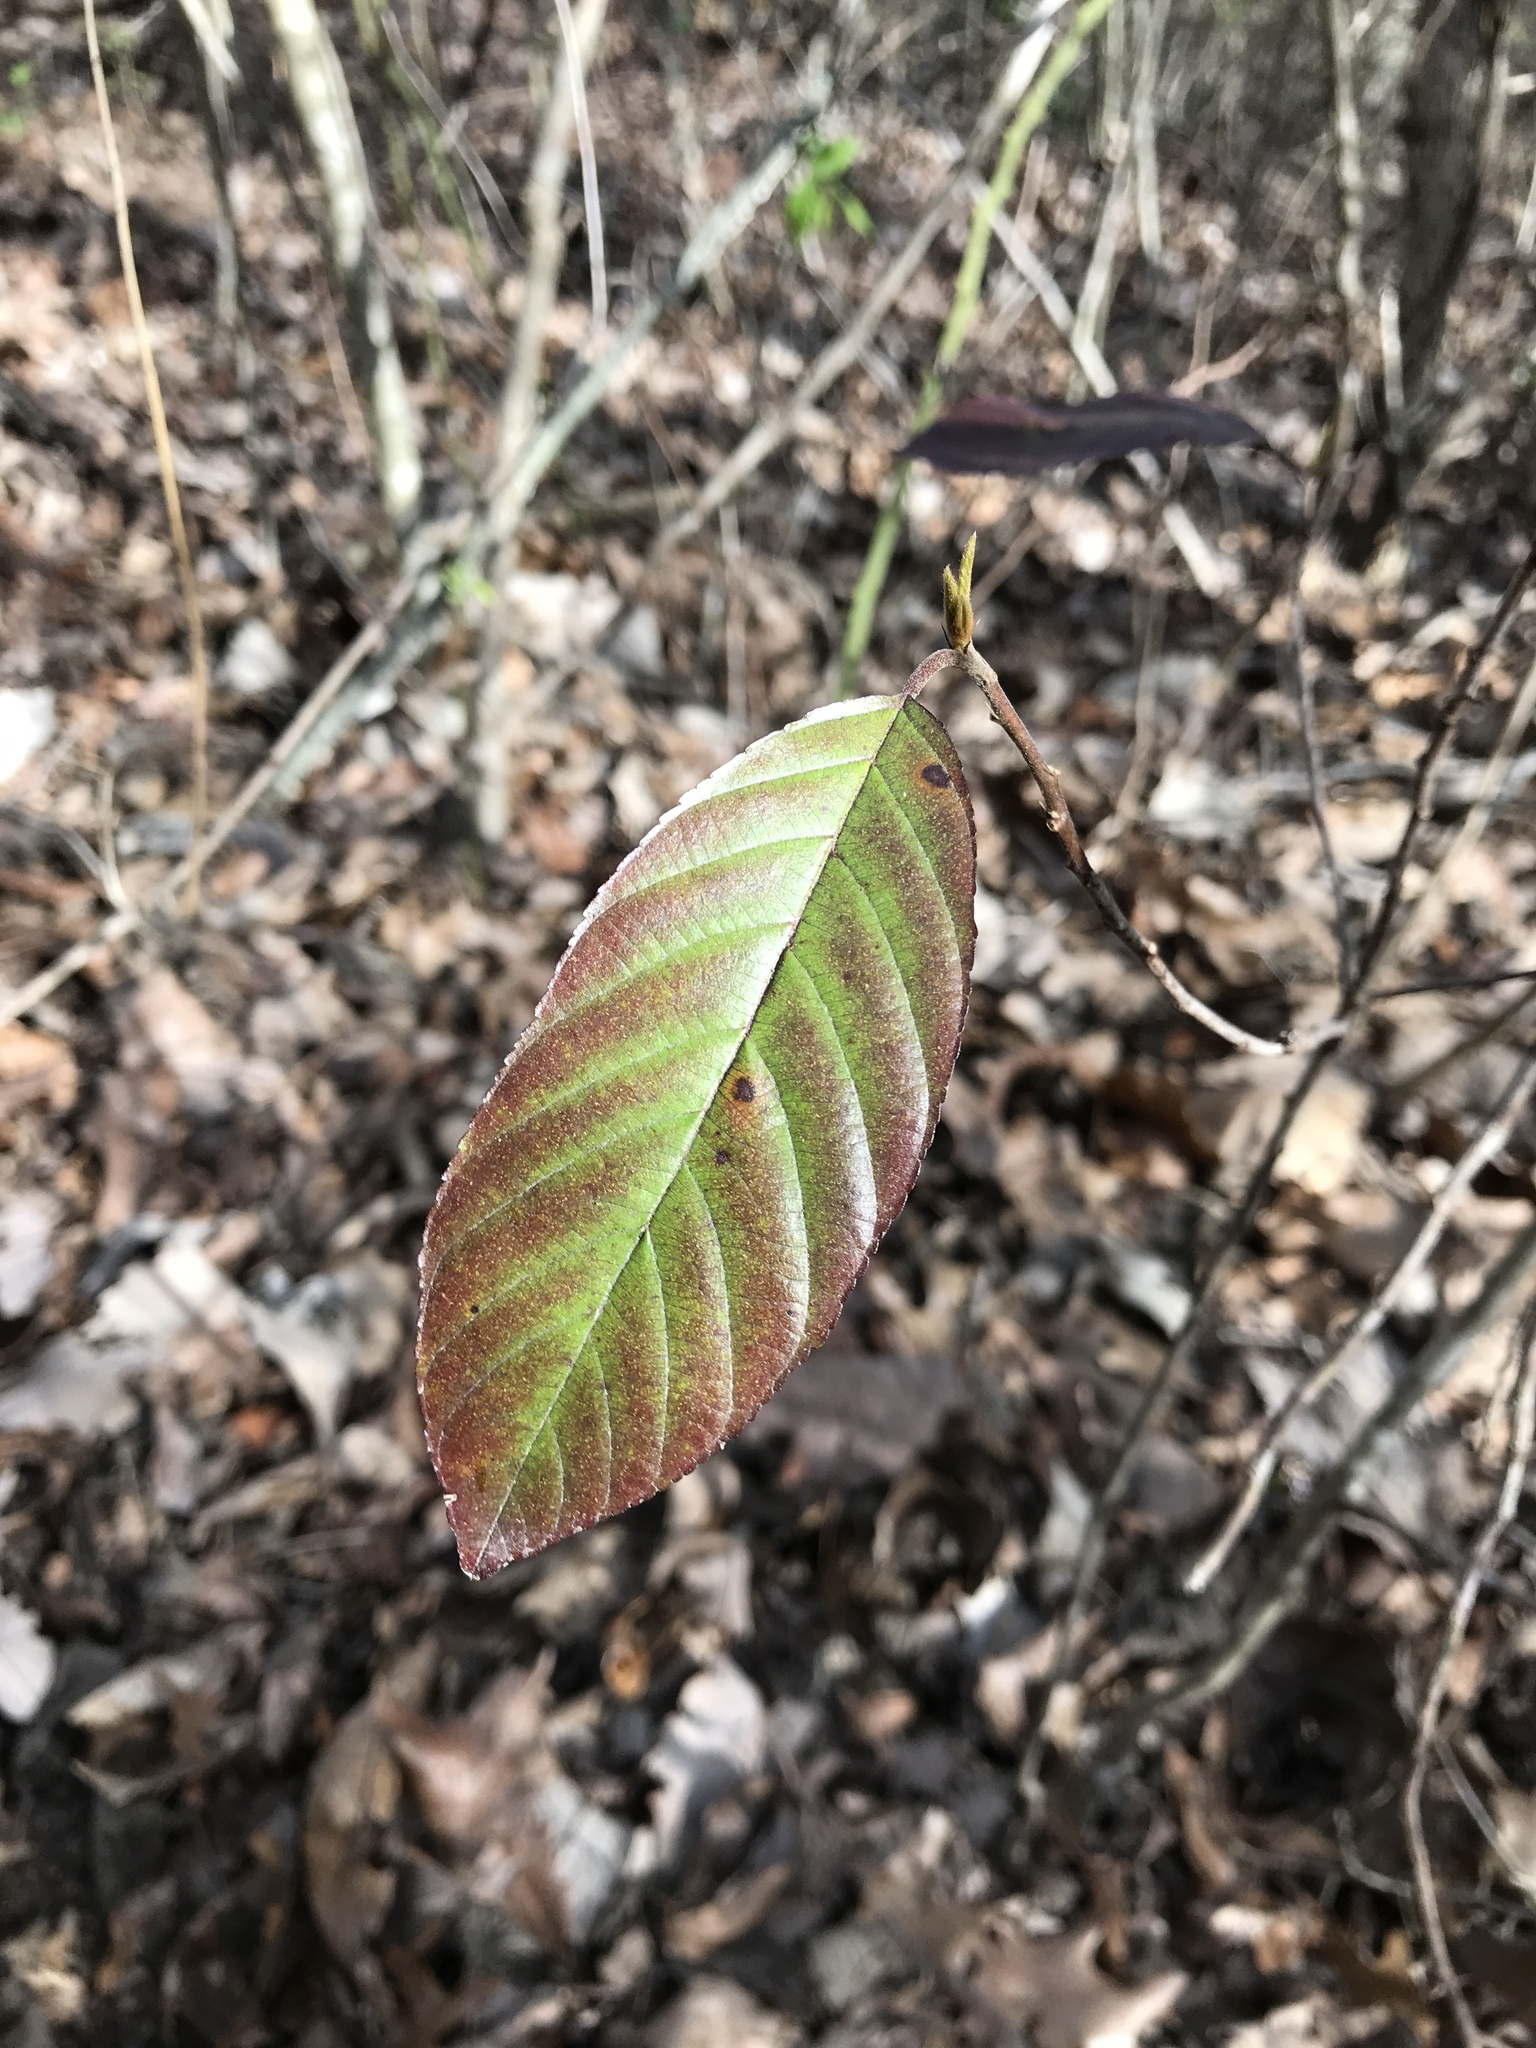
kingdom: Plantae
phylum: Tracheophyta
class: Magnoliopsida
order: Rosales
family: Rhamnaceae
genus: Frangula
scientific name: Frangula caroliniana
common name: Carolina buckthorn
